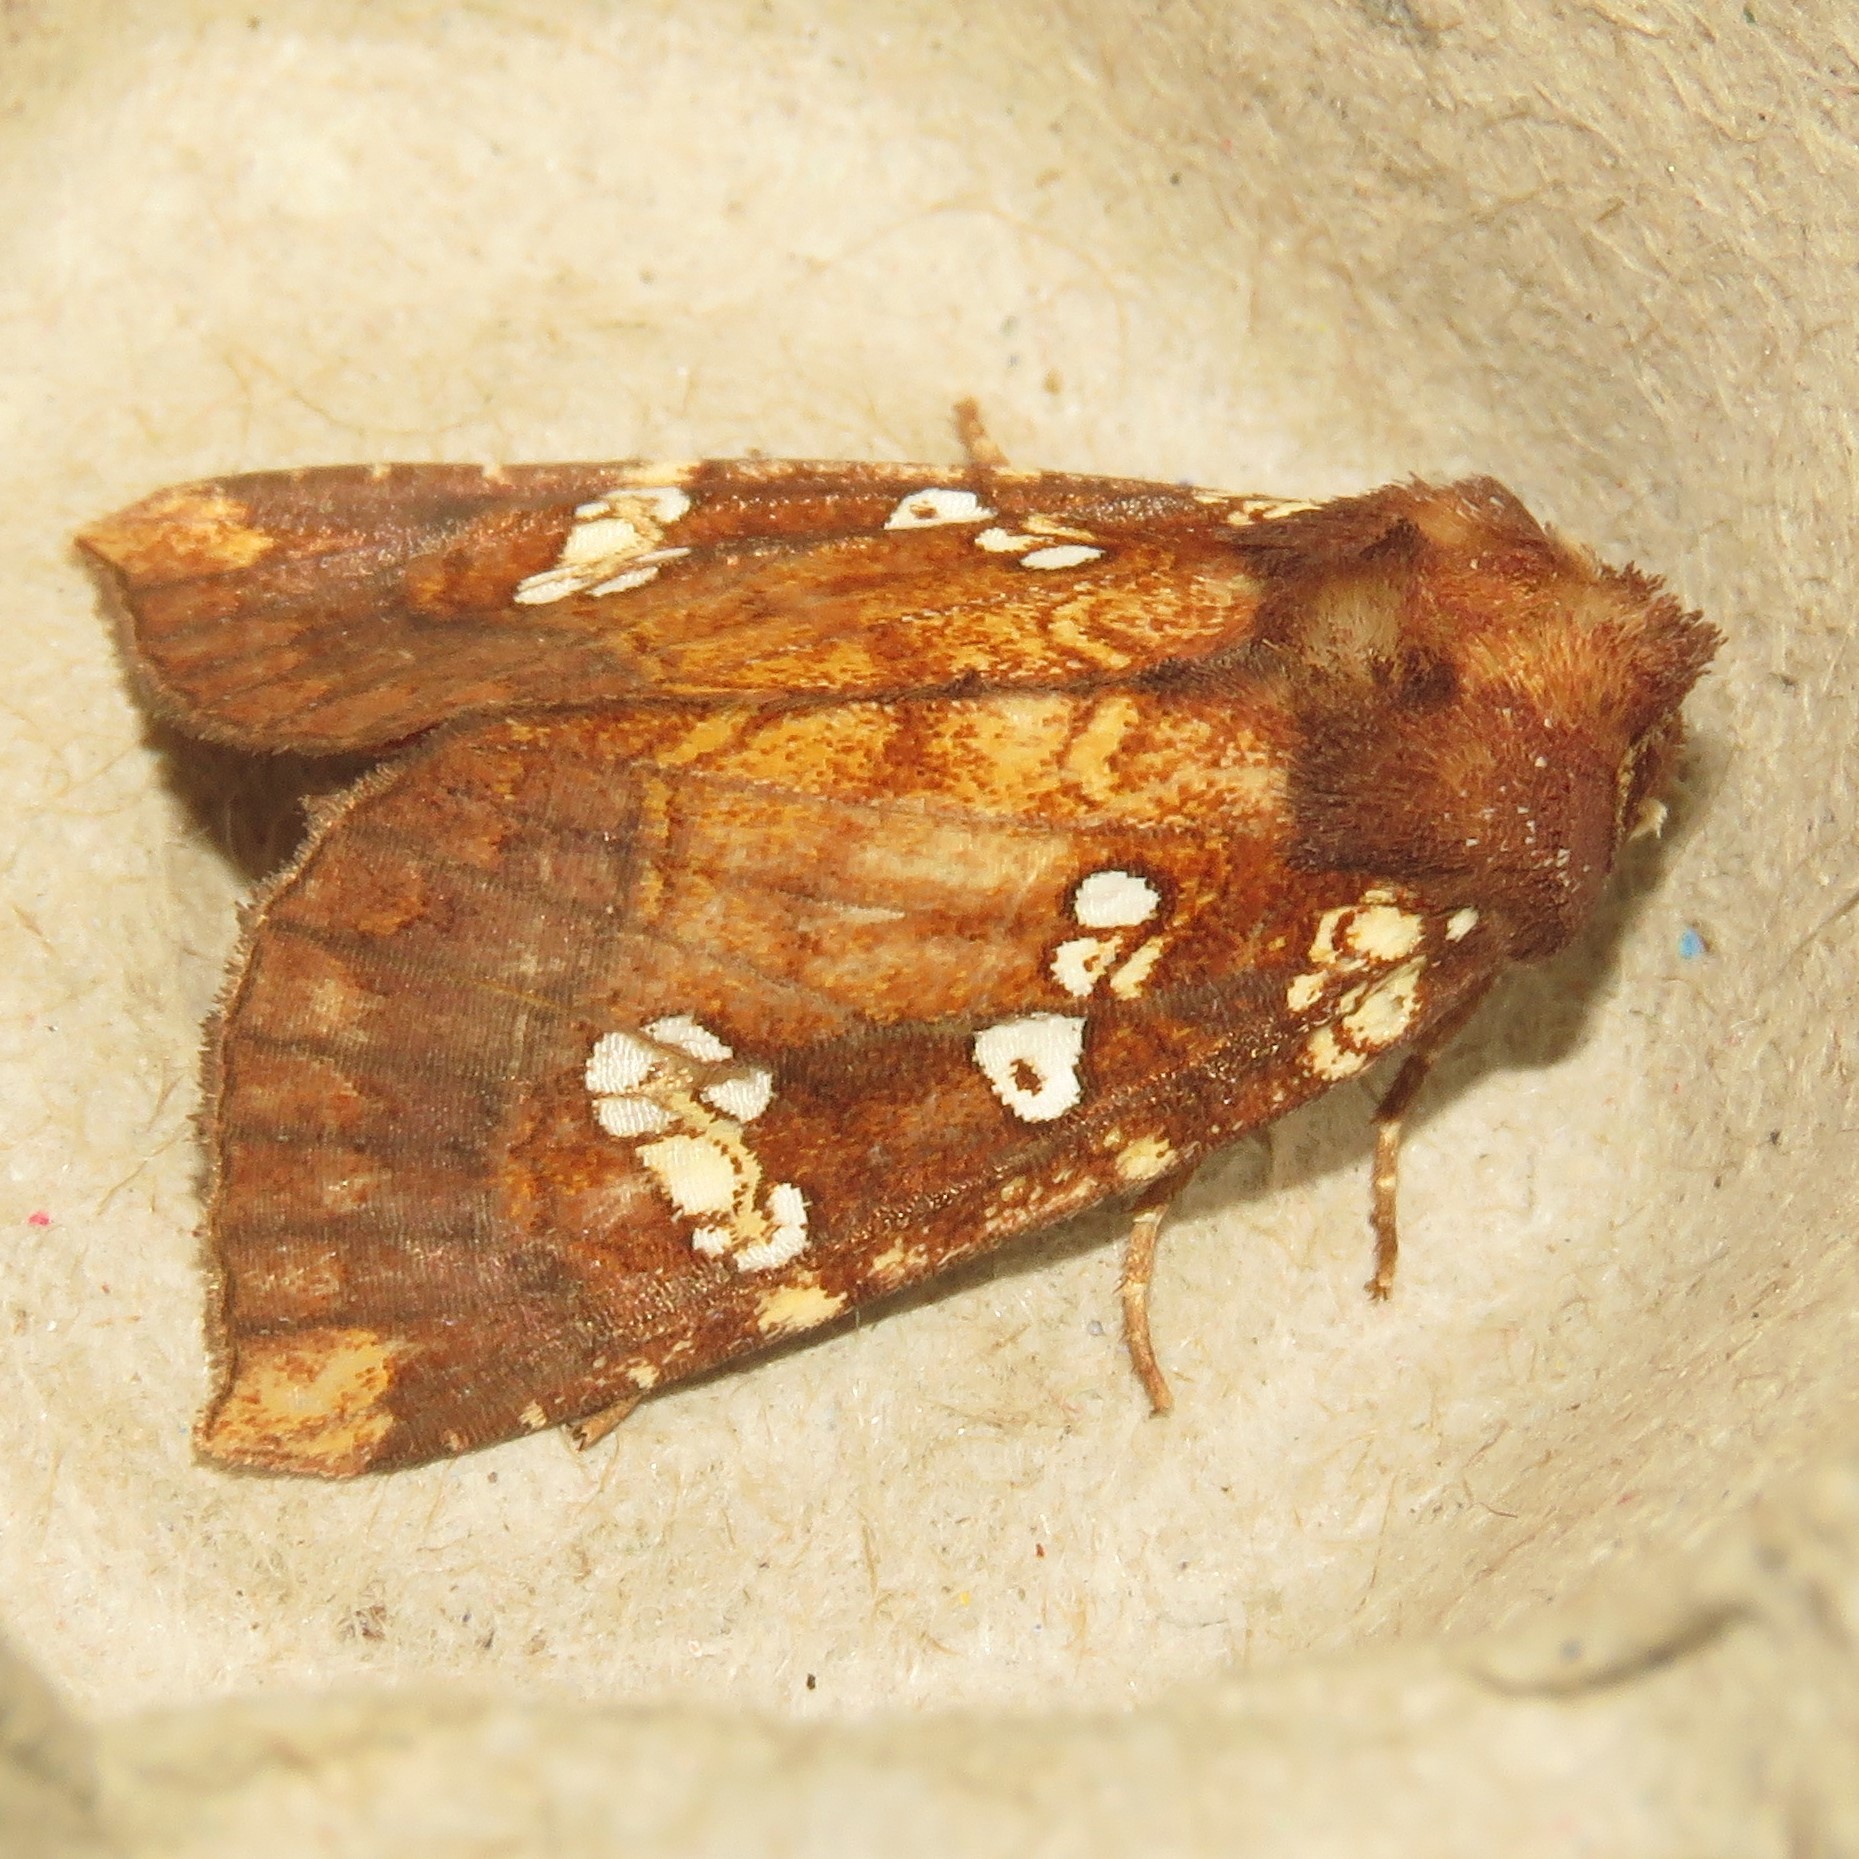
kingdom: Animalia
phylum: Arthropoda
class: Insecta
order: Lepidoptera
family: Noctuidae
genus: Papaipema
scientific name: Papaipema insulidens
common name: Ragwort stem borer moth
